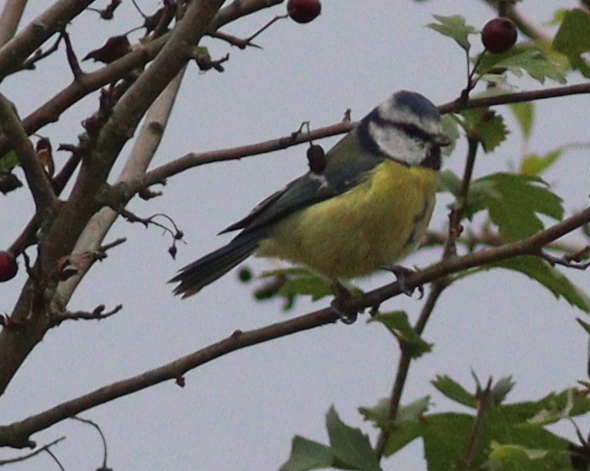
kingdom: Animalia
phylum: Chordata
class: Aves
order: Passeriformes
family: Paridae
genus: Cyanistes
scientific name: Cyanistes caeruleus
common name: Eurasian blue tit
